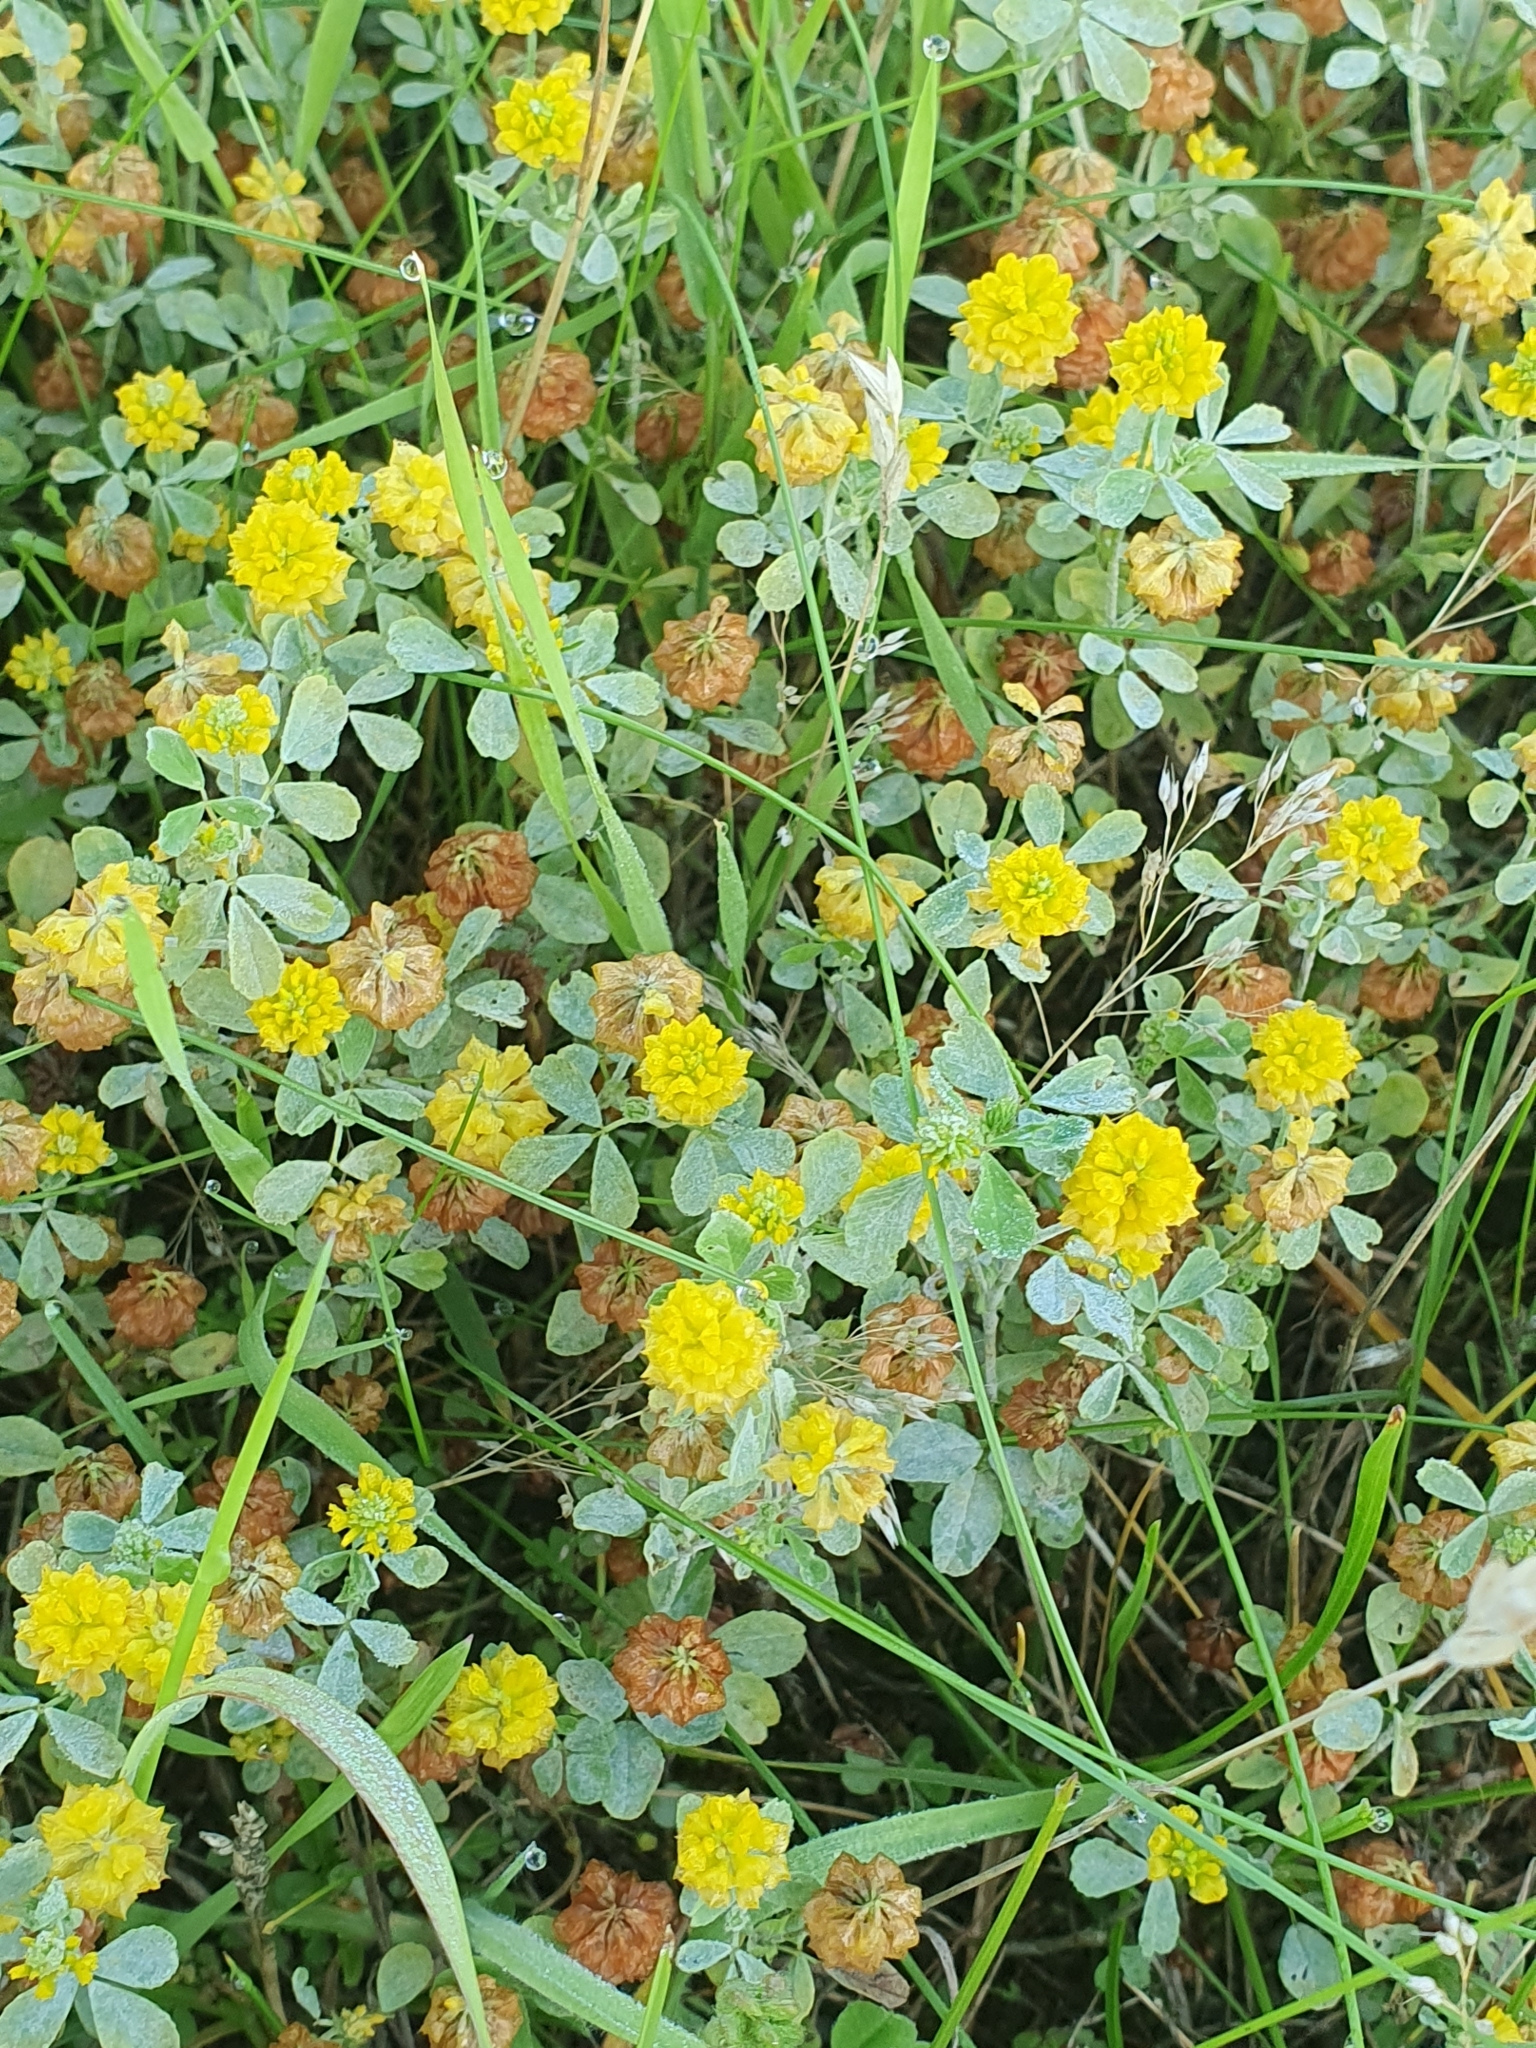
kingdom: Plantae
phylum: Tracheophyta
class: Magnoliopsida
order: Fabales
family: Fabaceae
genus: Trifolium
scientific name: Trifolium campestre
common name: Field clover
